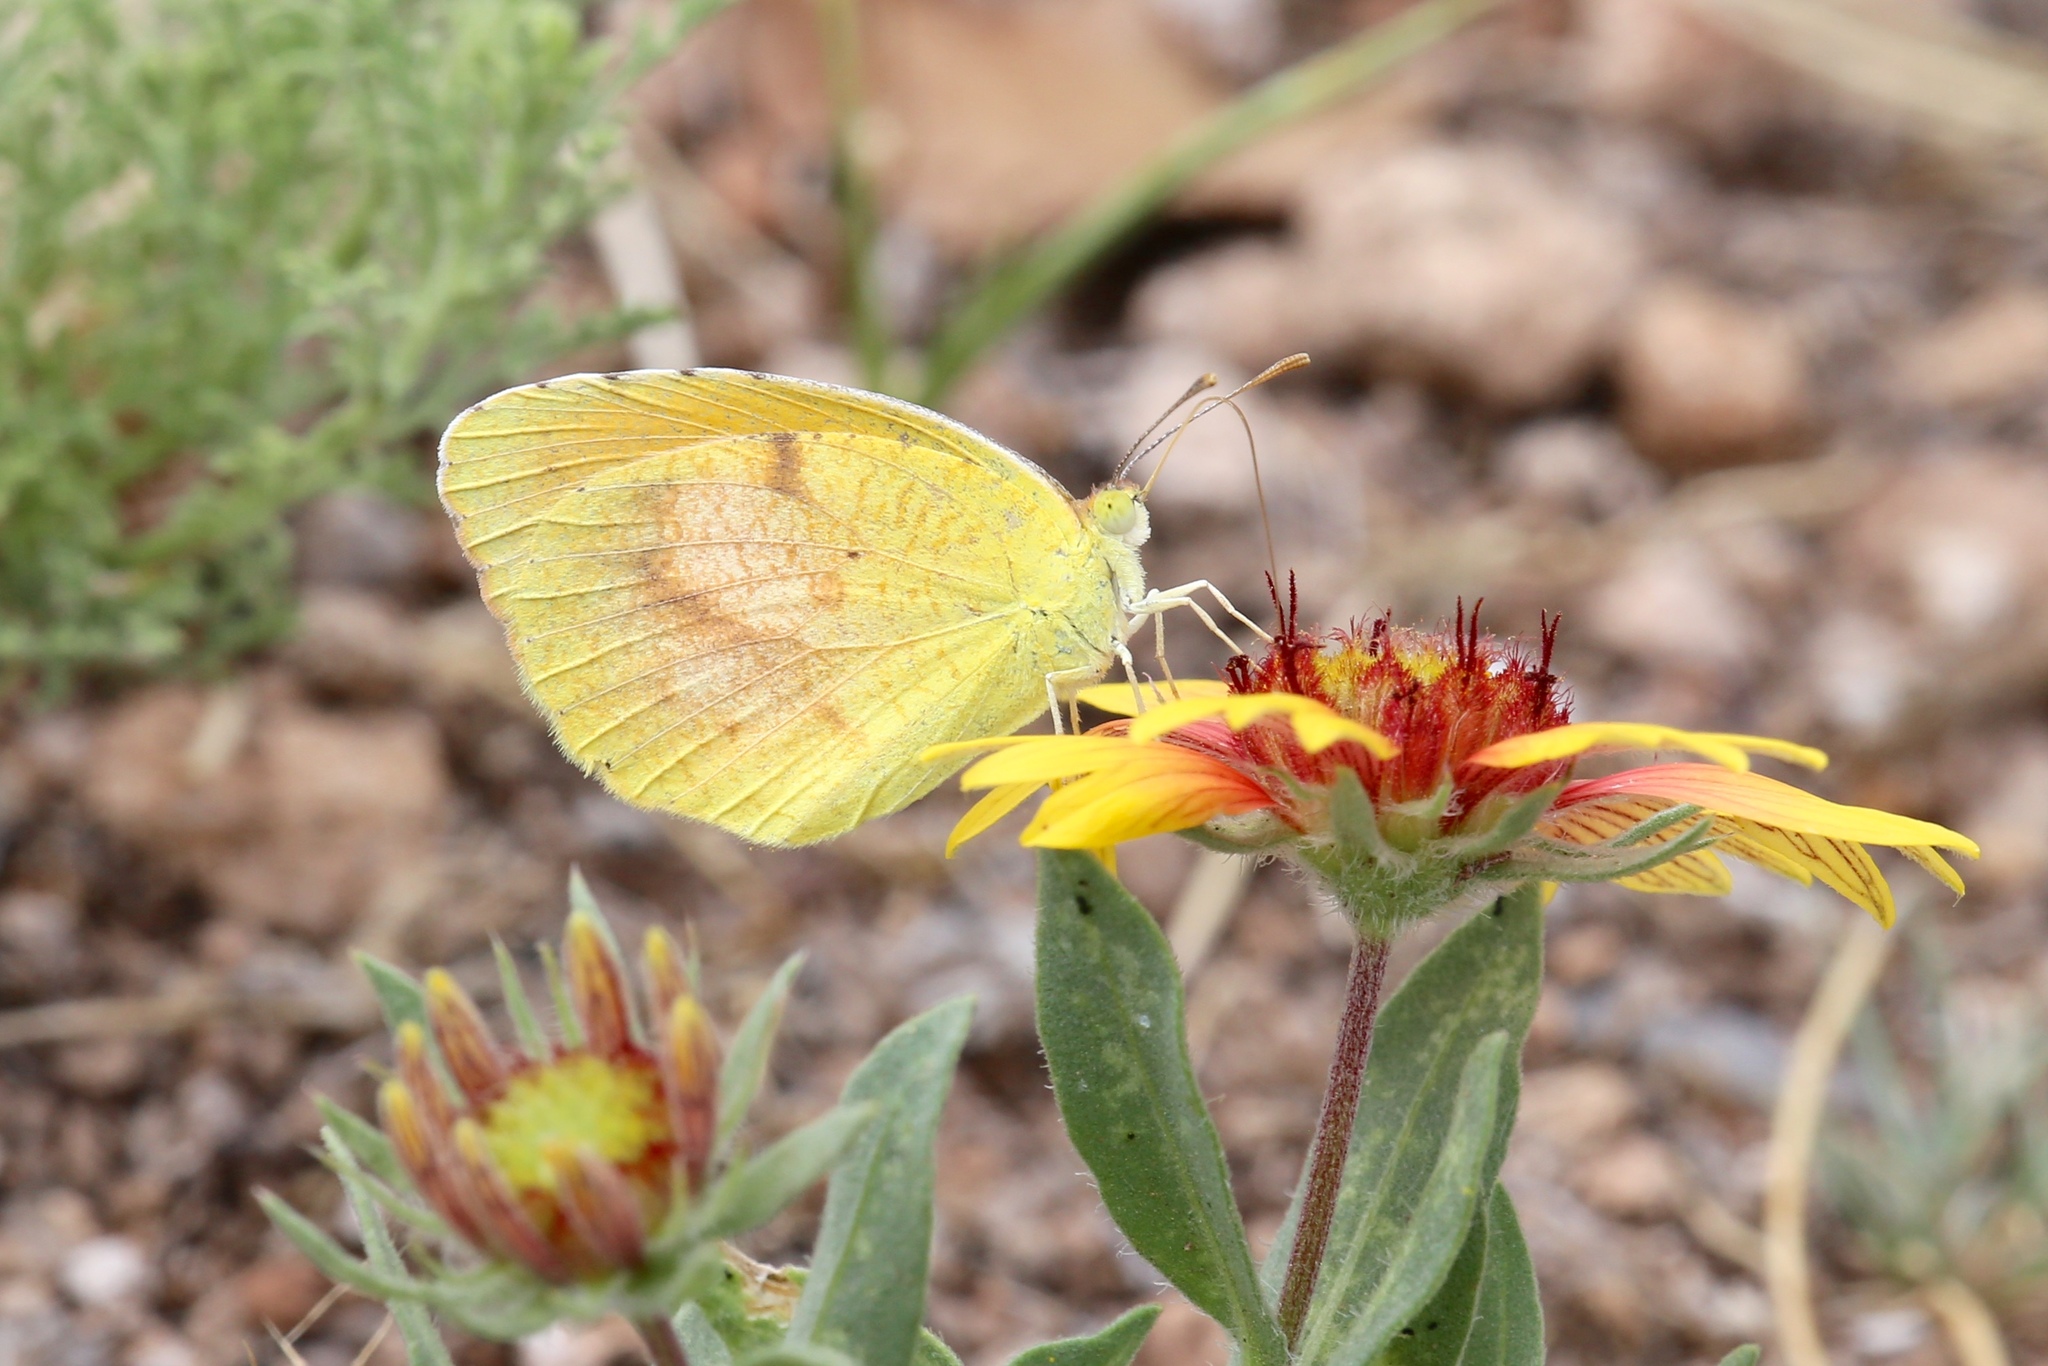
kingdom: Animalia
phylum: Arthropoda
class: Insecta
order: Lepidoptera
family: Pieridae
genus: Abaeis
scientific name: Abaeis nicippe
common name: Sleepy orange
